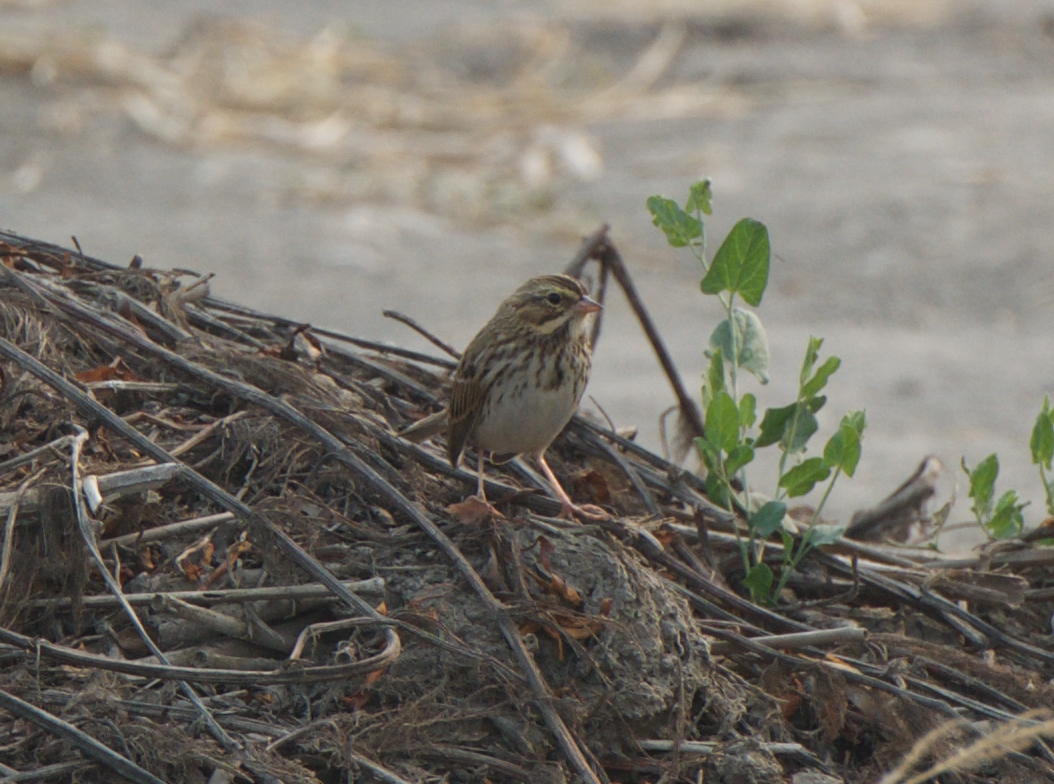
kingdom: Animalia
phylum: Chordata
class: Aves
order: Passeriformes
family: Passerellidae
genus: Passerculus
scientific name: Passerculus sandwichensis
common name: Savannah sparrow
